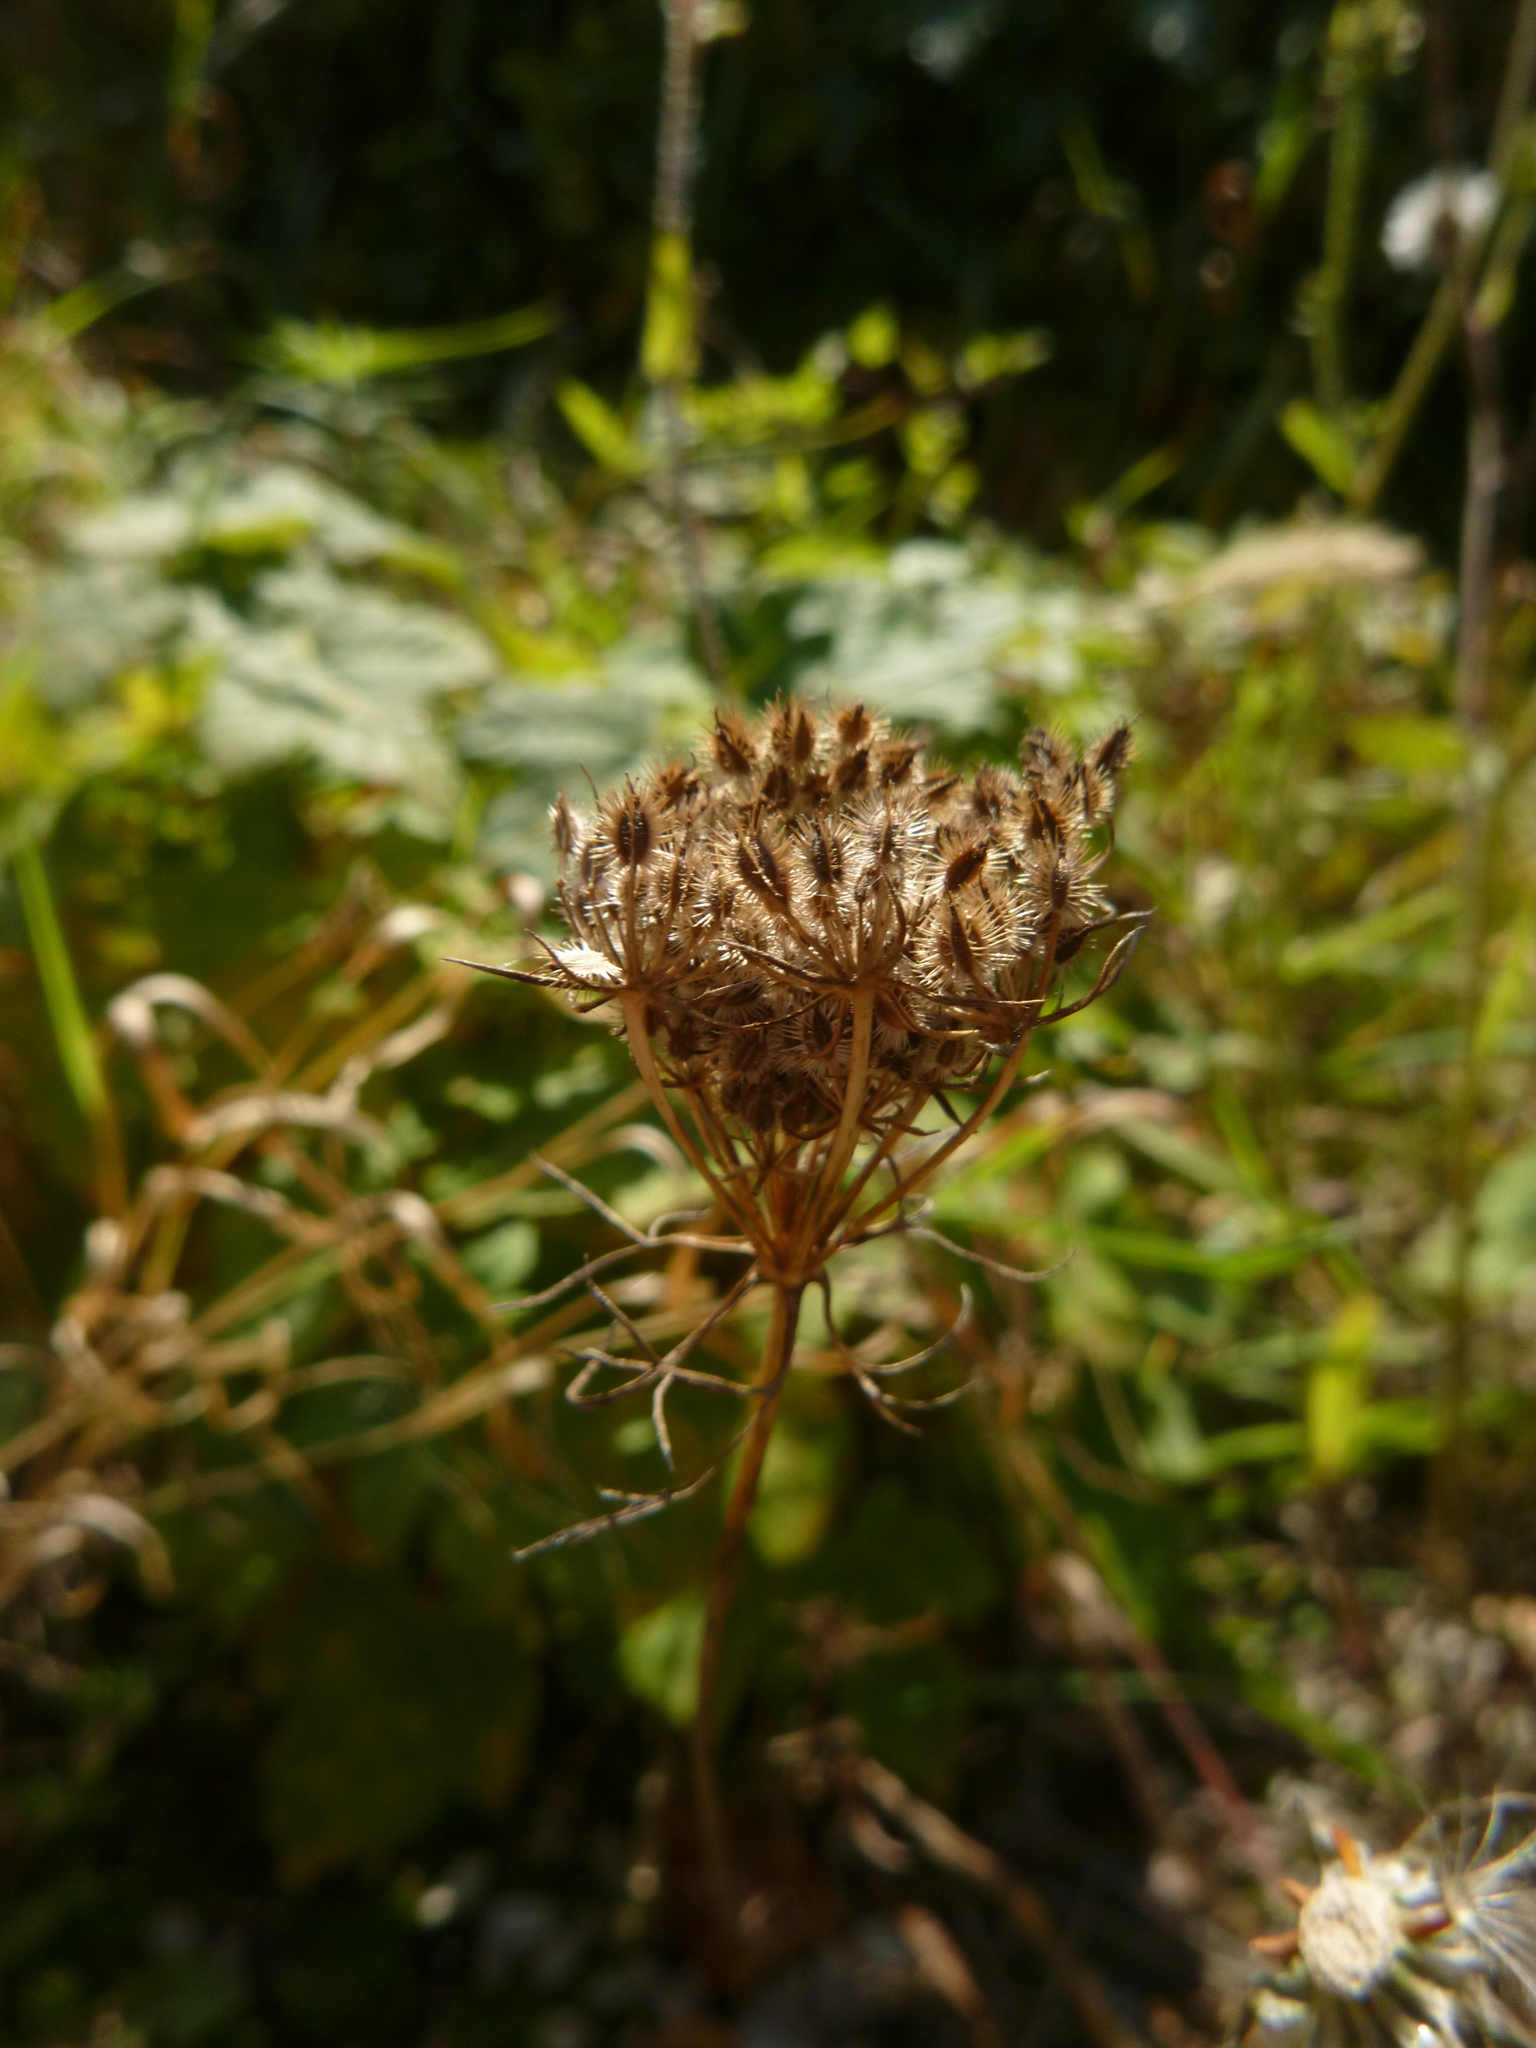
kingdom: Plantae
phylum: Tracheophyta
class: Magnoliopsida
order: Apiales
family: Apiaceae
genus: Daucus
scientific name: Daucus carota
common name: Wild carrot
